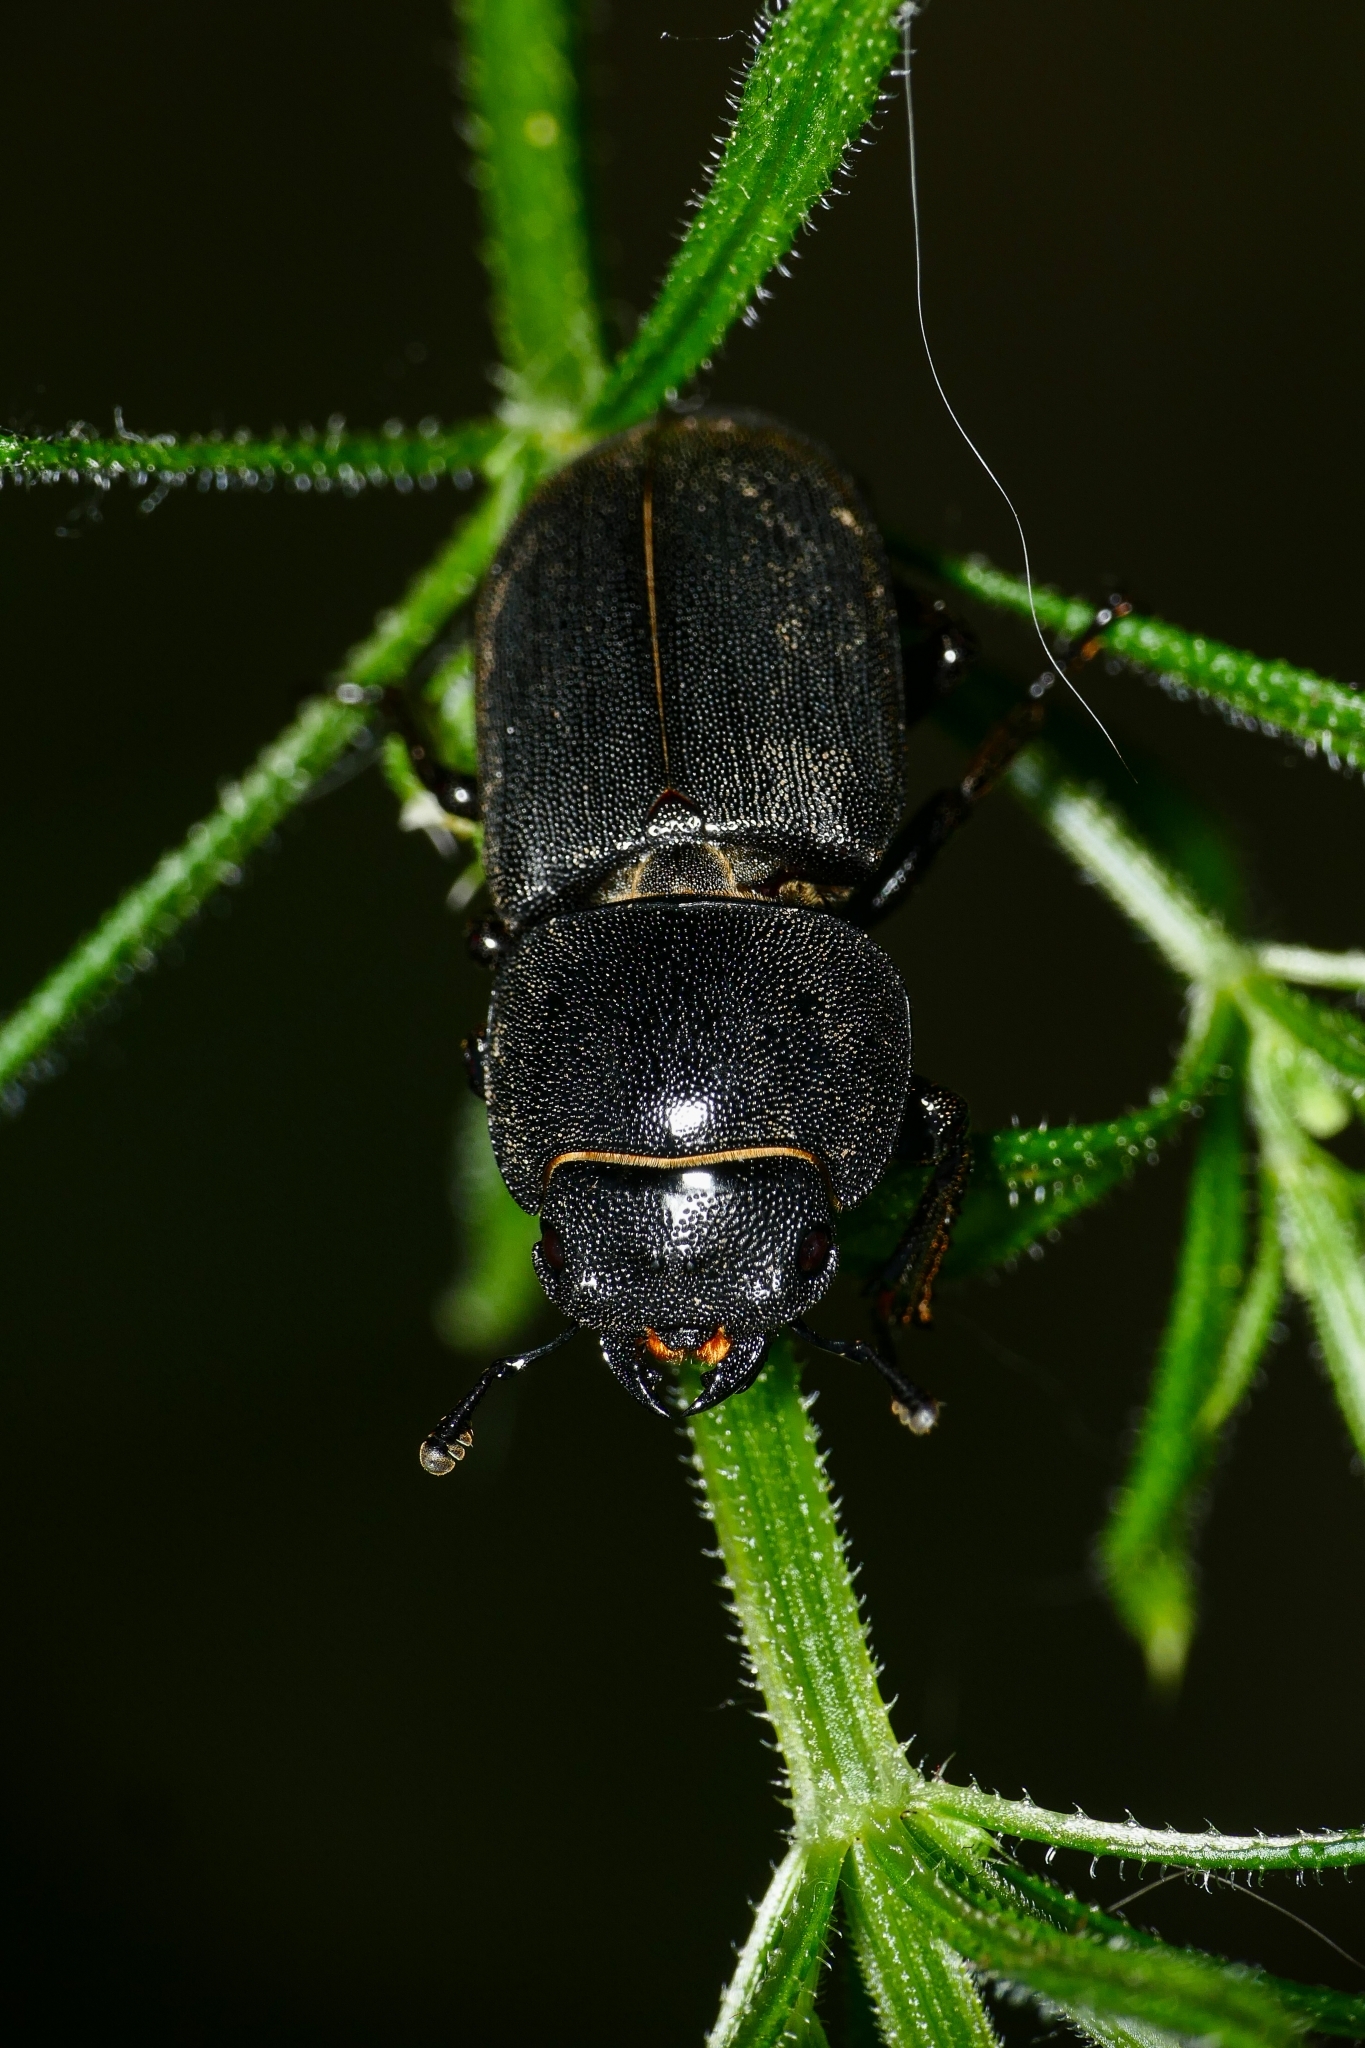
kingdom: Animalia
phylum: Arthropoda
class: Insecta
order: Coleoptera
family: Lucanidae
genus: Dorcus
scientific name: Dorcus parallelipipedus
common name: Lesser stag beetle
